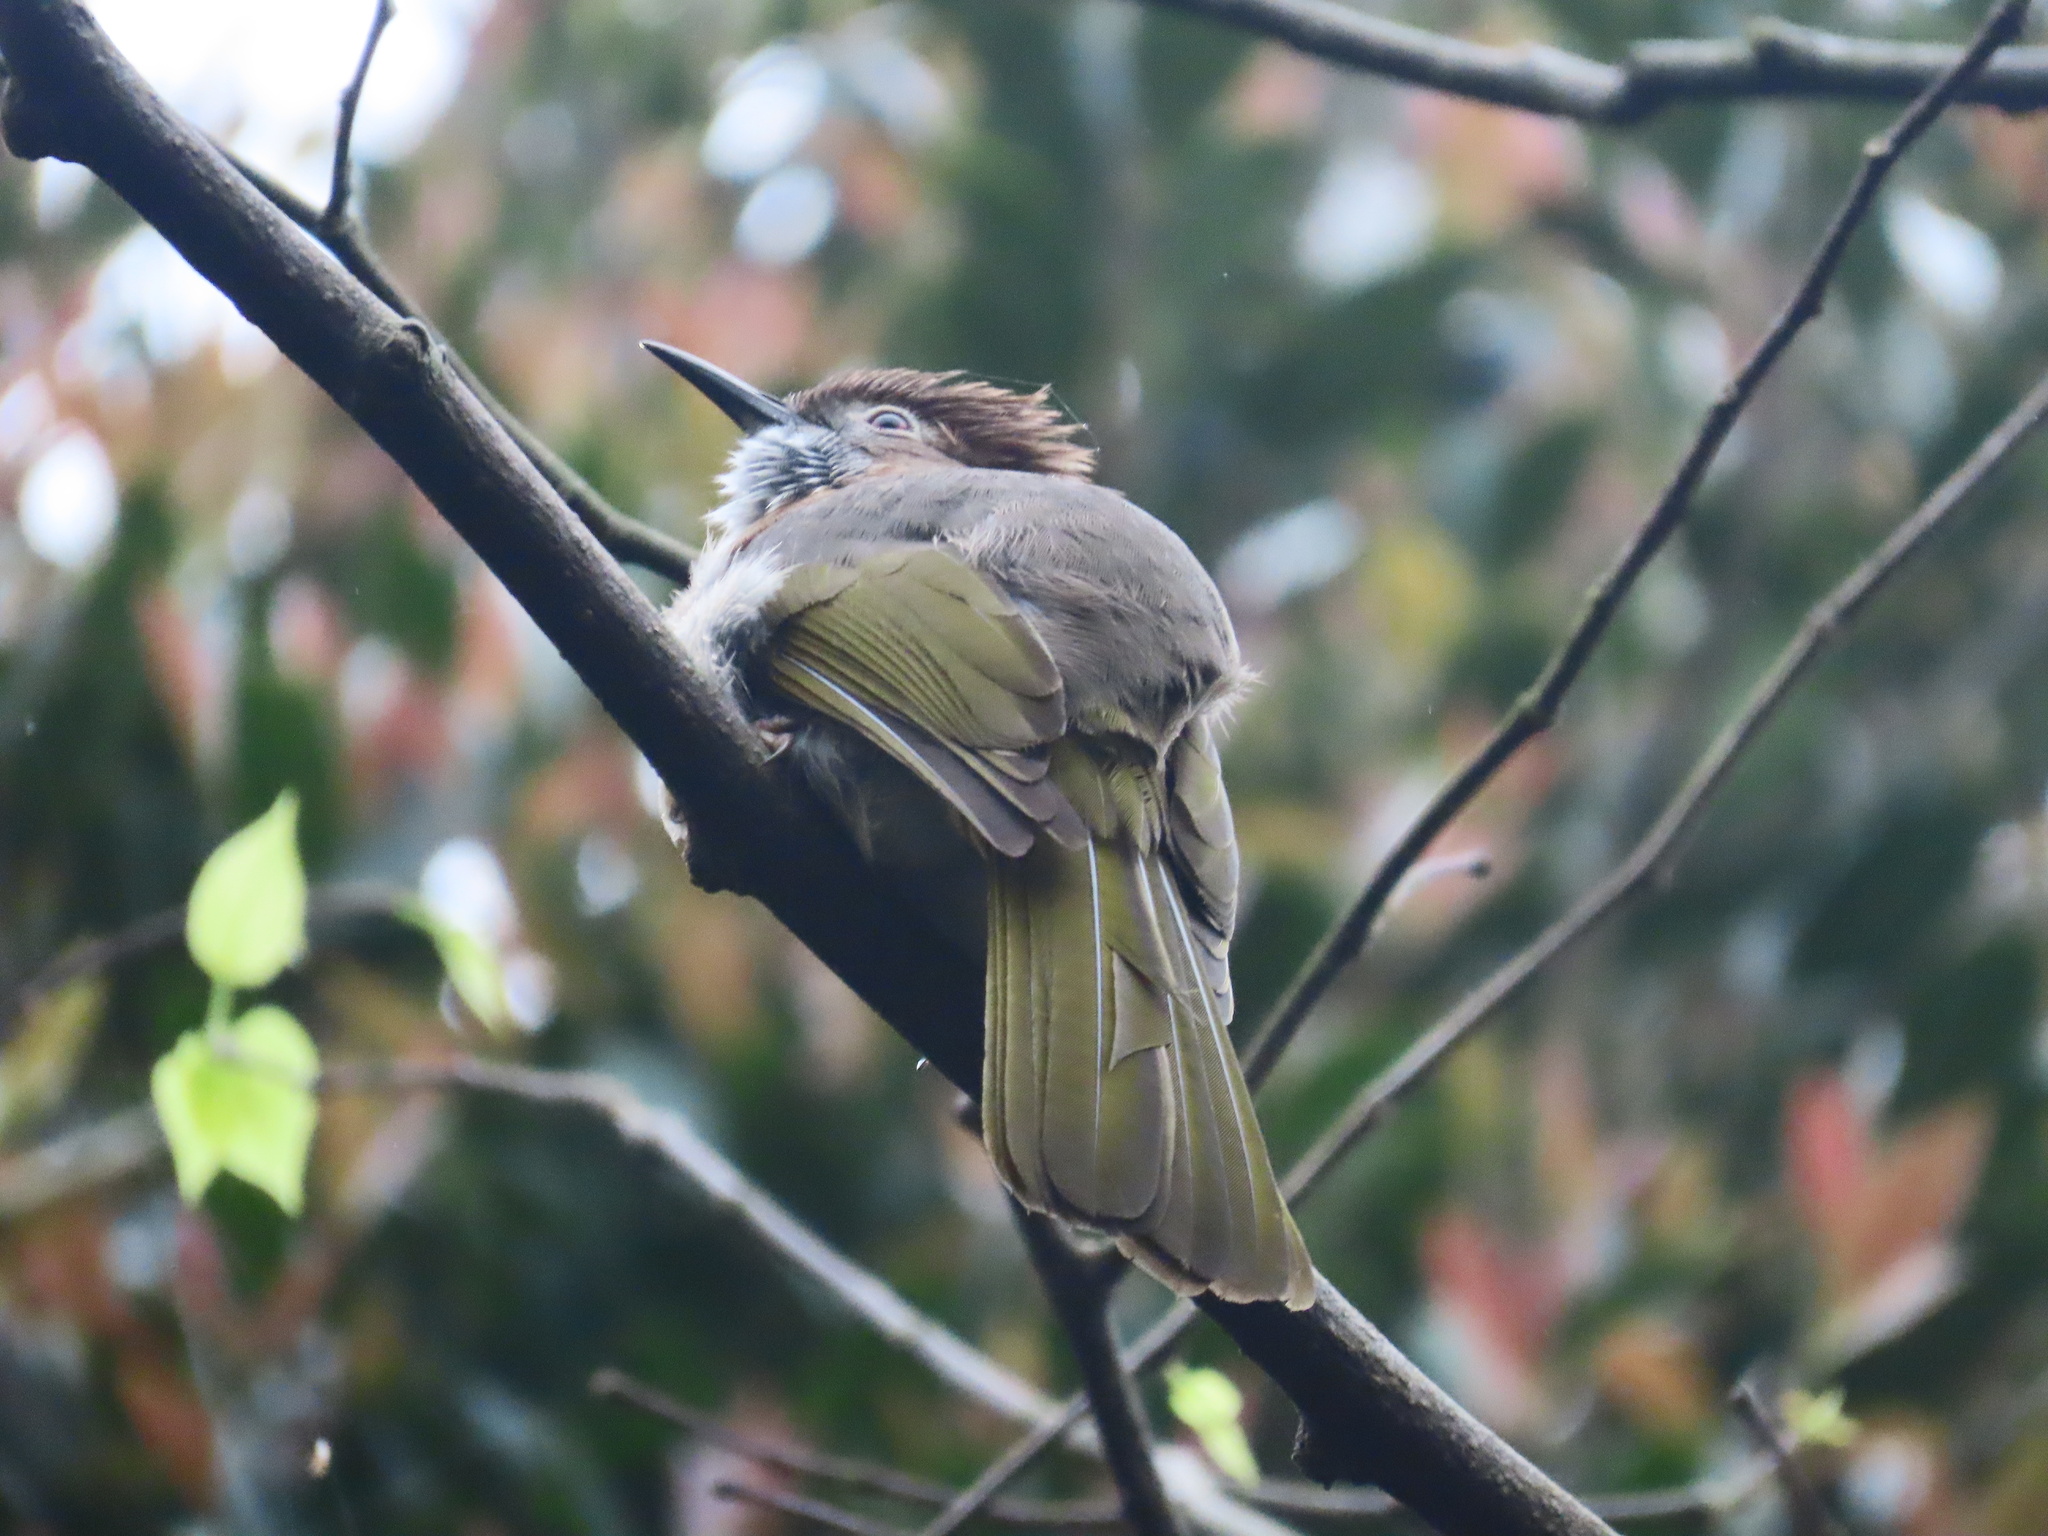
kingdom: Animalia
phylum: Chordata
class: Aves
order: Passeriformes
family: Pycnonotidae
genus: Ixos
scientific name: Ixos mcclellandii
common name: Mountain bulbul
